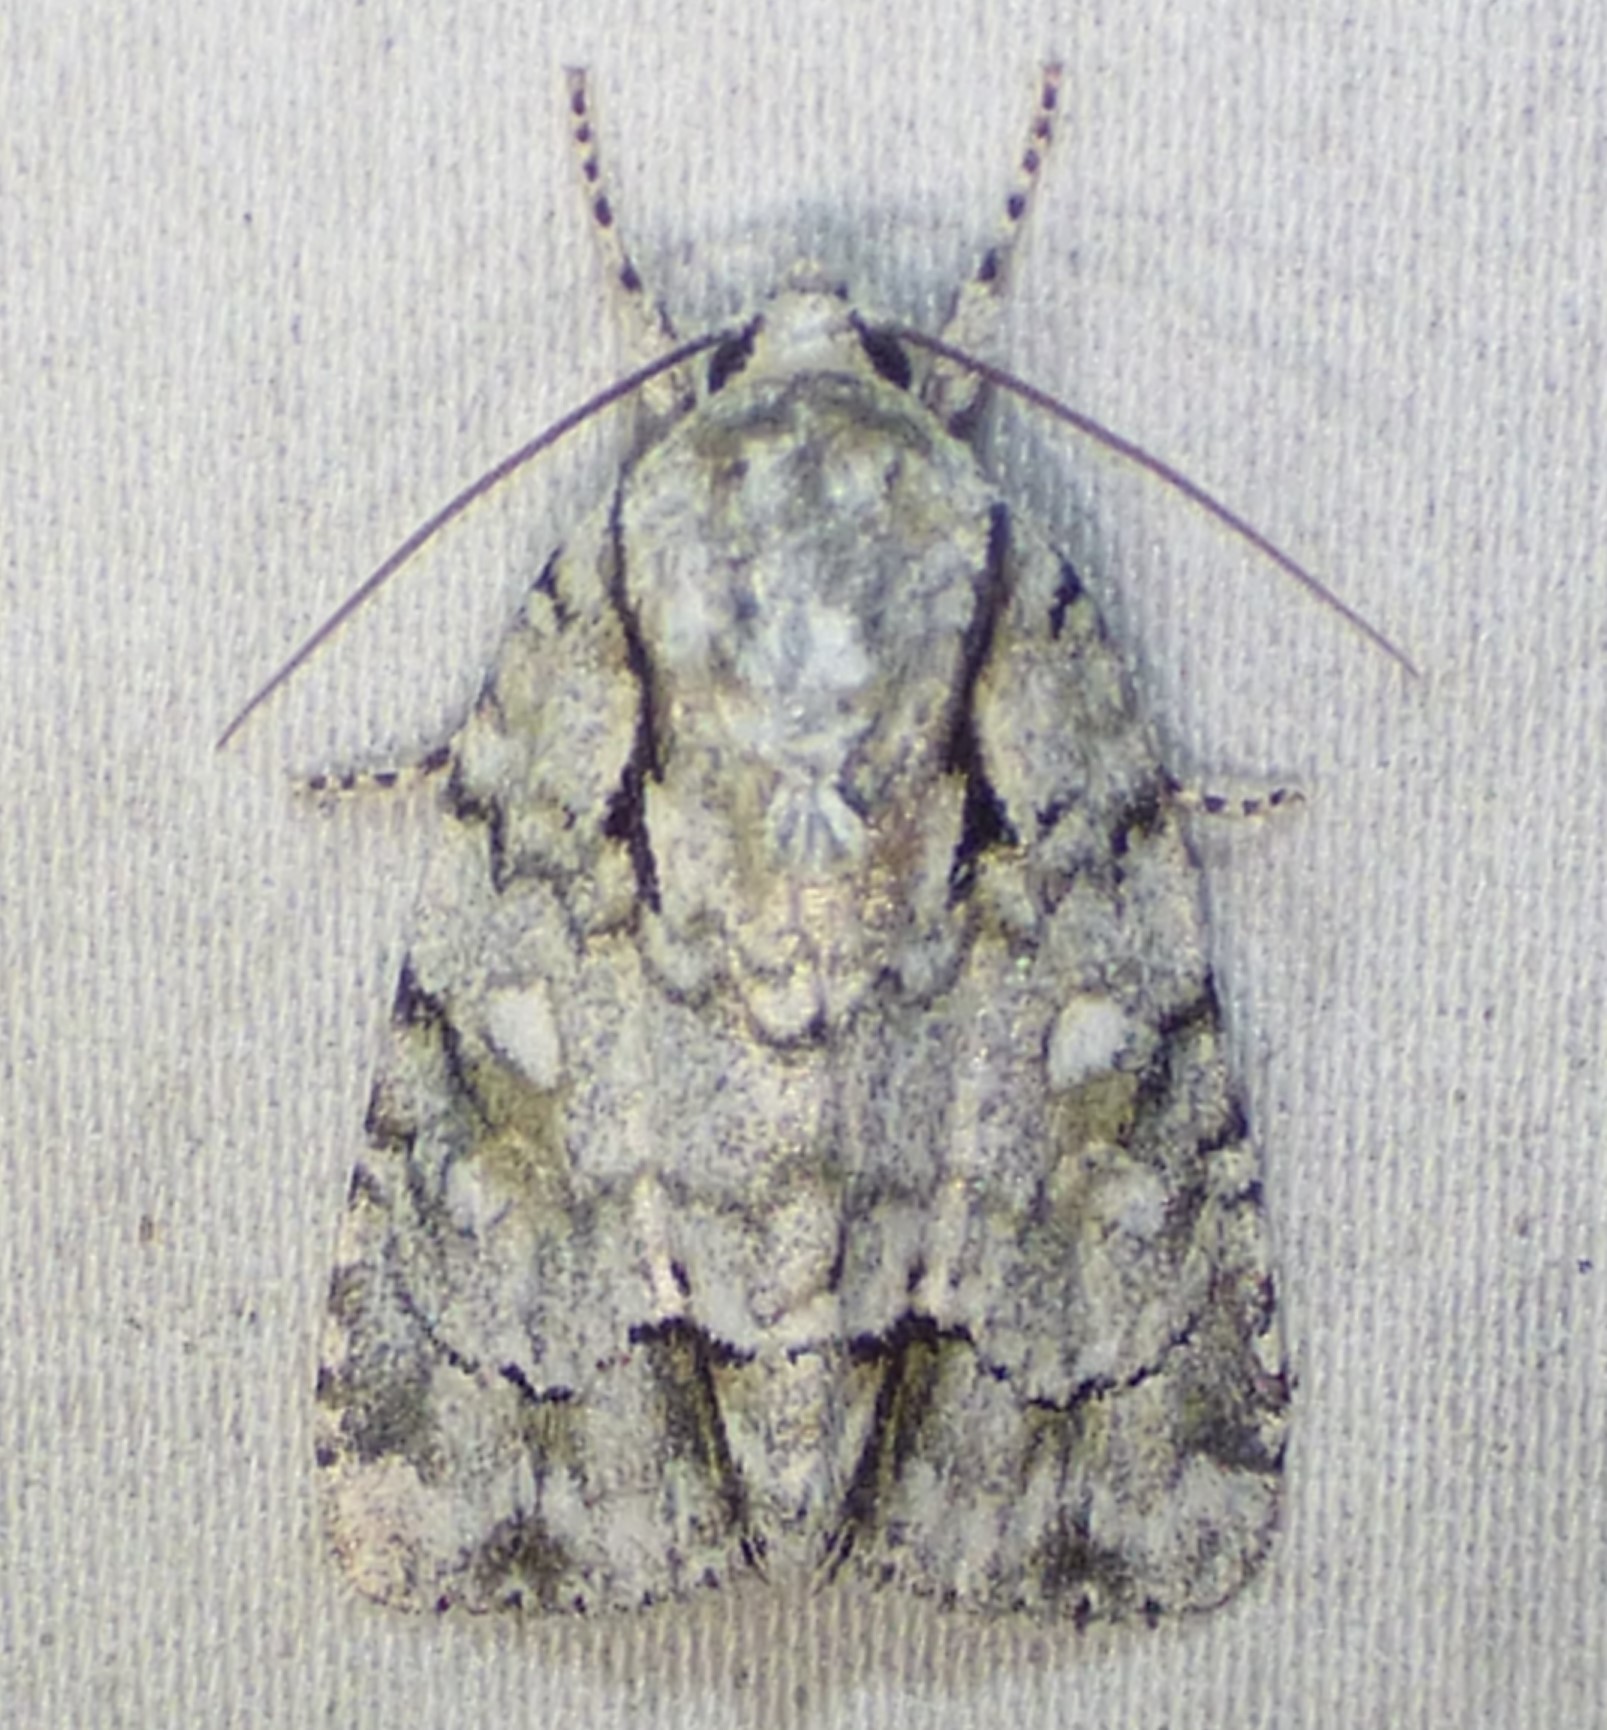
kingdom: Animalia
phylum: Arthropoda
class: Insecta
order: Lepidoptera
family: Noctuidae
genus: Acronicta
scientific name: Acronicta vinnula
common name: Delightful dagger
